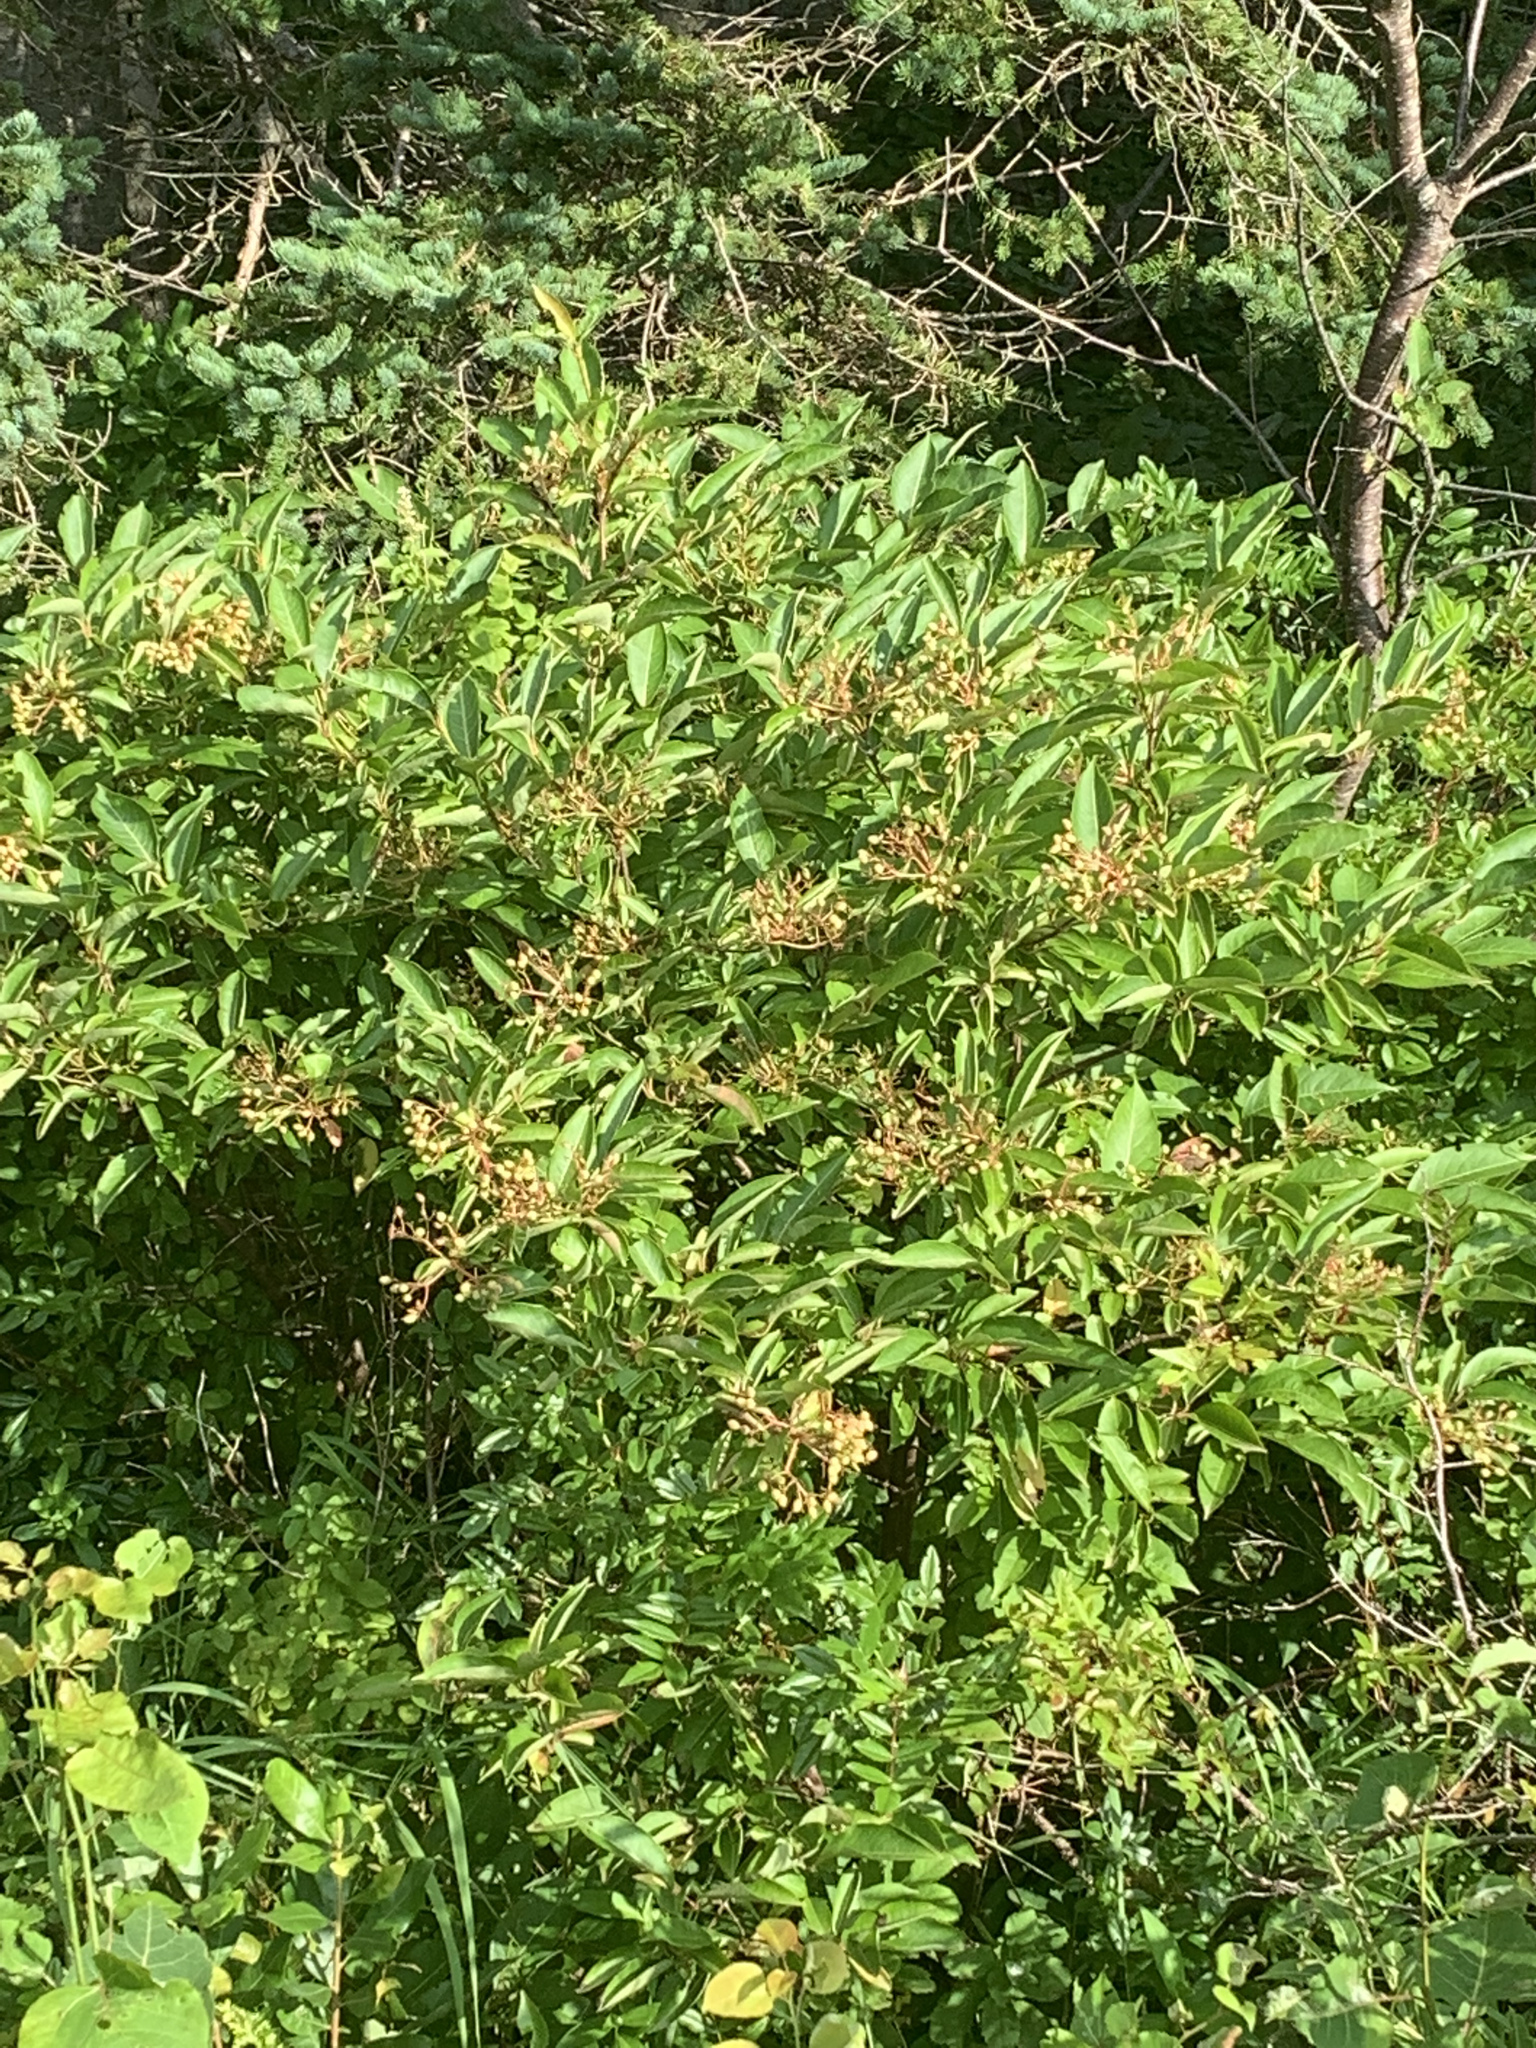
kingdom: Plantae
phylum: Tracheophyta
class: Magnoliopsida
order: Dipsacales
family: Viburnaceae
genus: Viburnum
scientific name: Viburnum cassinoides
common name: Swamp haw
